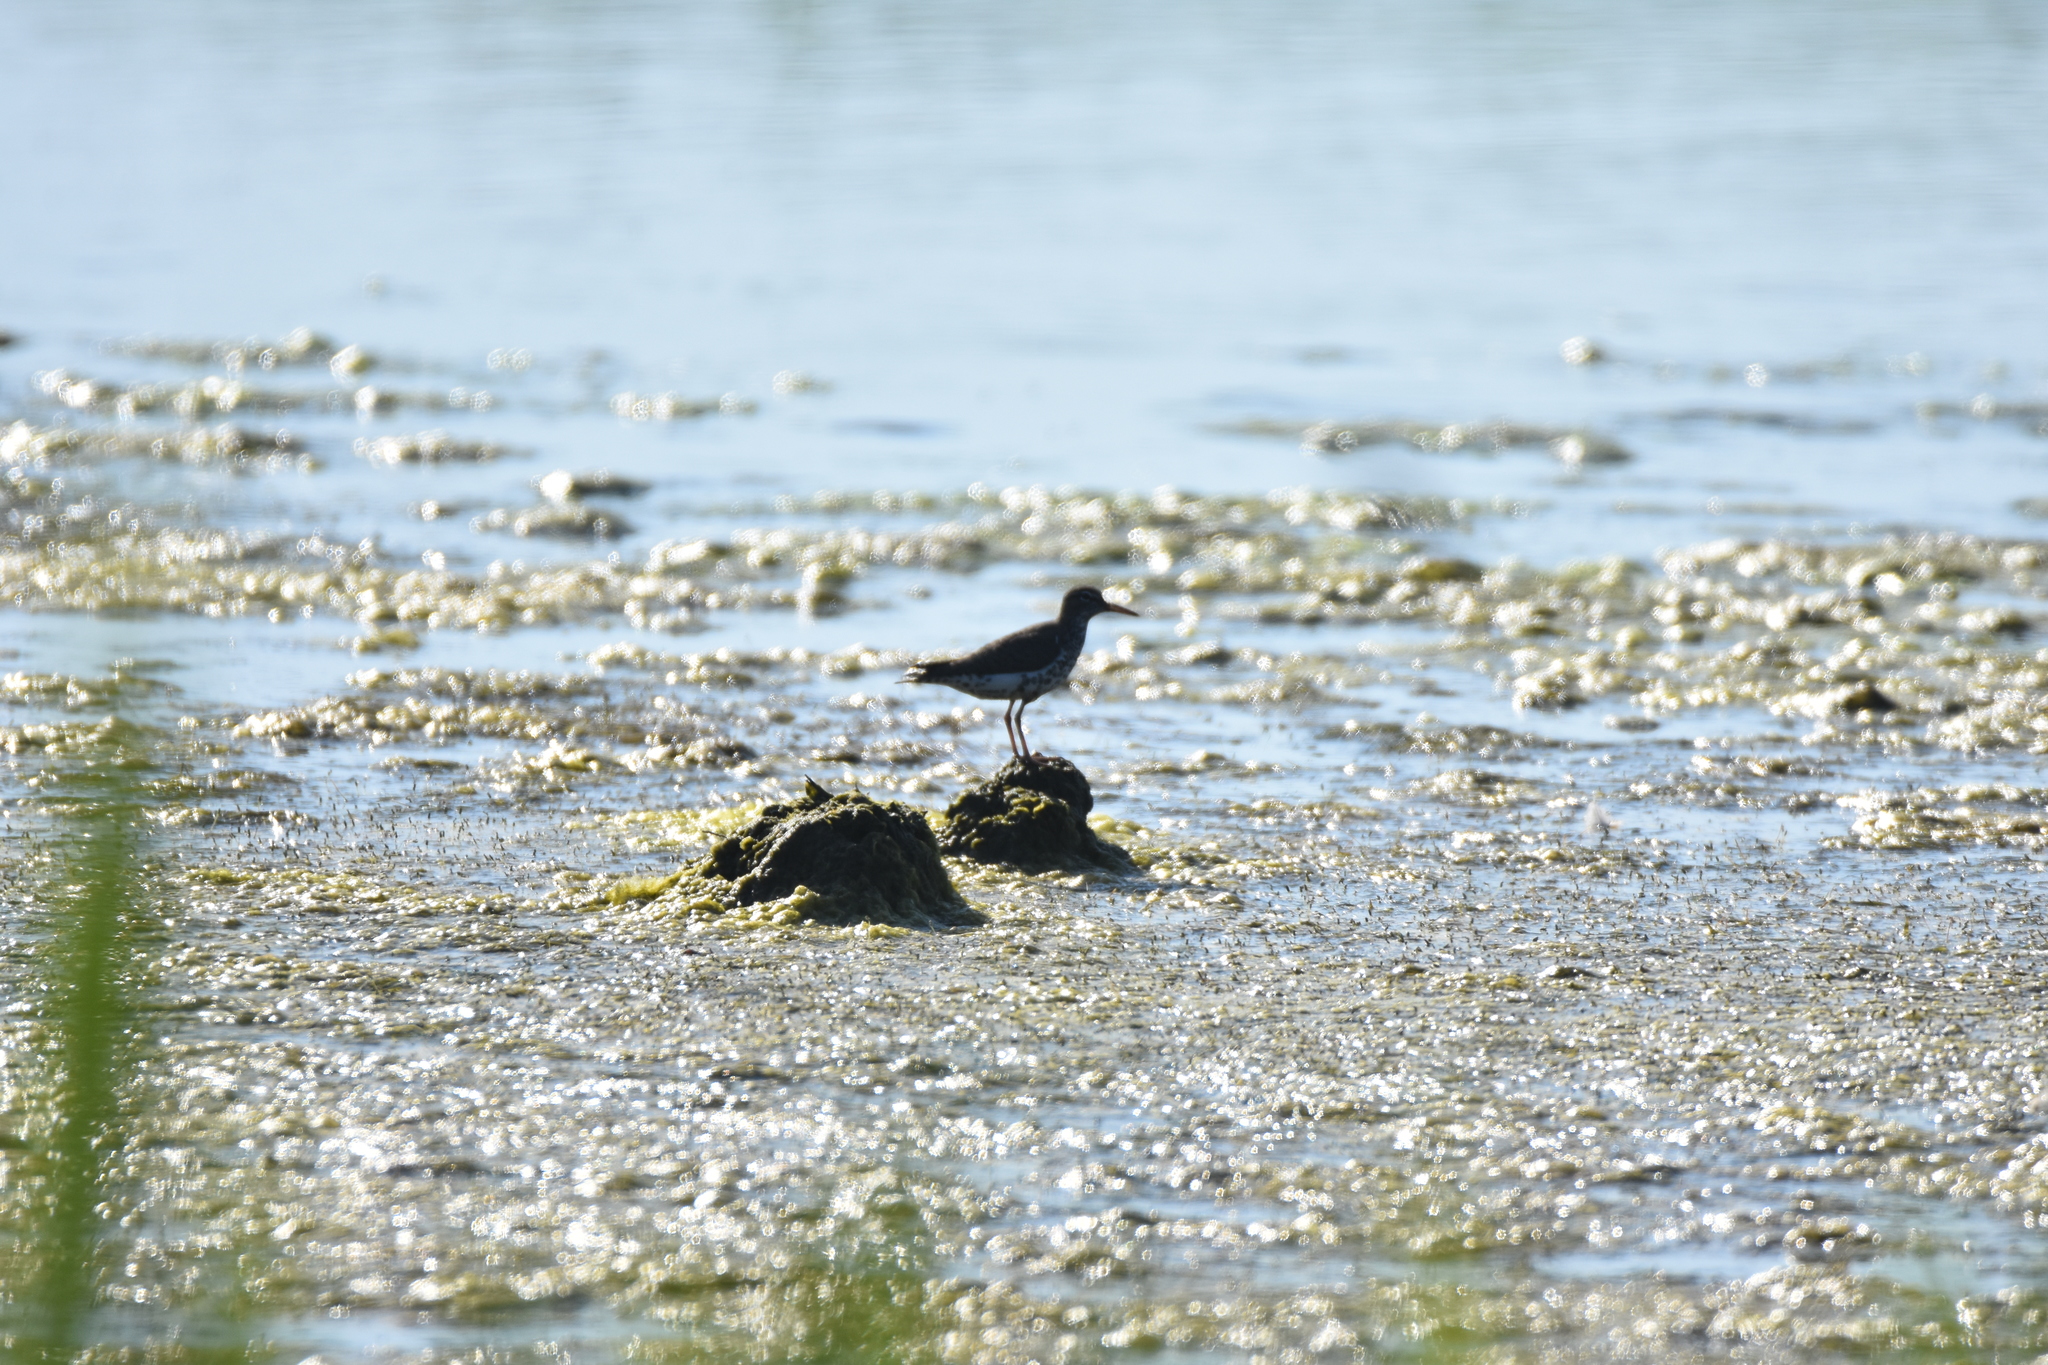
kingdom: Animalia
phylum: Chordata
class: Aves
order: Charadriiformes
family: Scolopacidae
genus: Actitis
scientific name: Actitis macularius
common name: Spotted sandpiper
